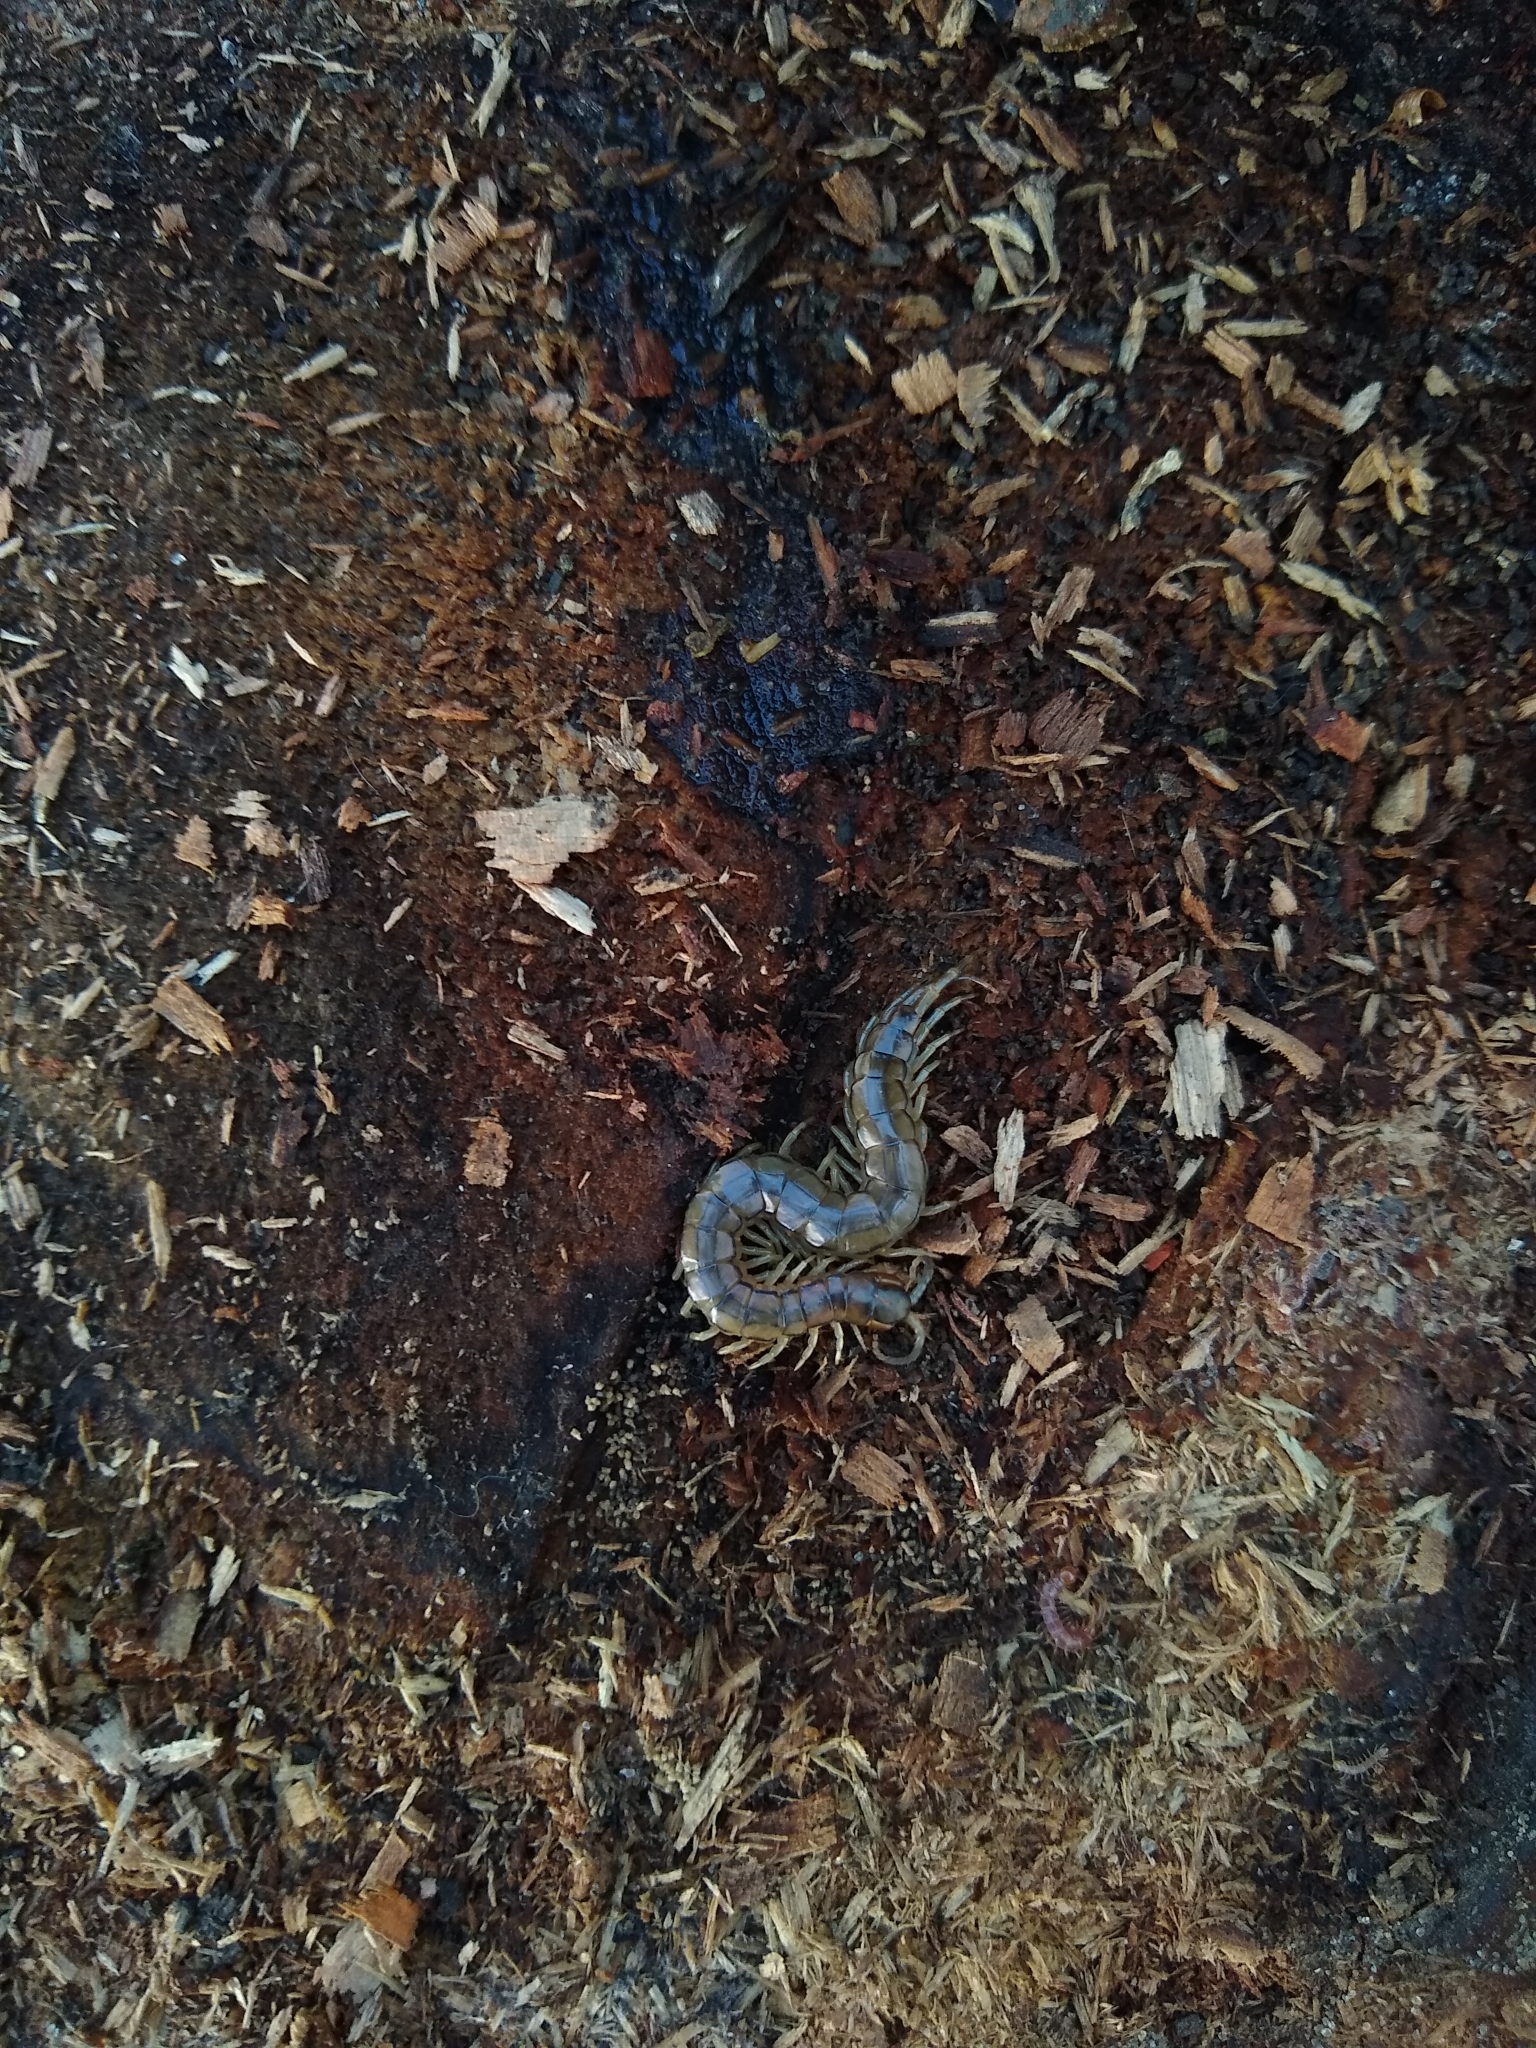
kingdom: Animalia
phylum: Arthropoda
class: Chilopoda
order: Scolopendromorpha
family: Scolopendridae
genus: Hemiscolopendra
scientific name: Hemiscolopendra laevigata
